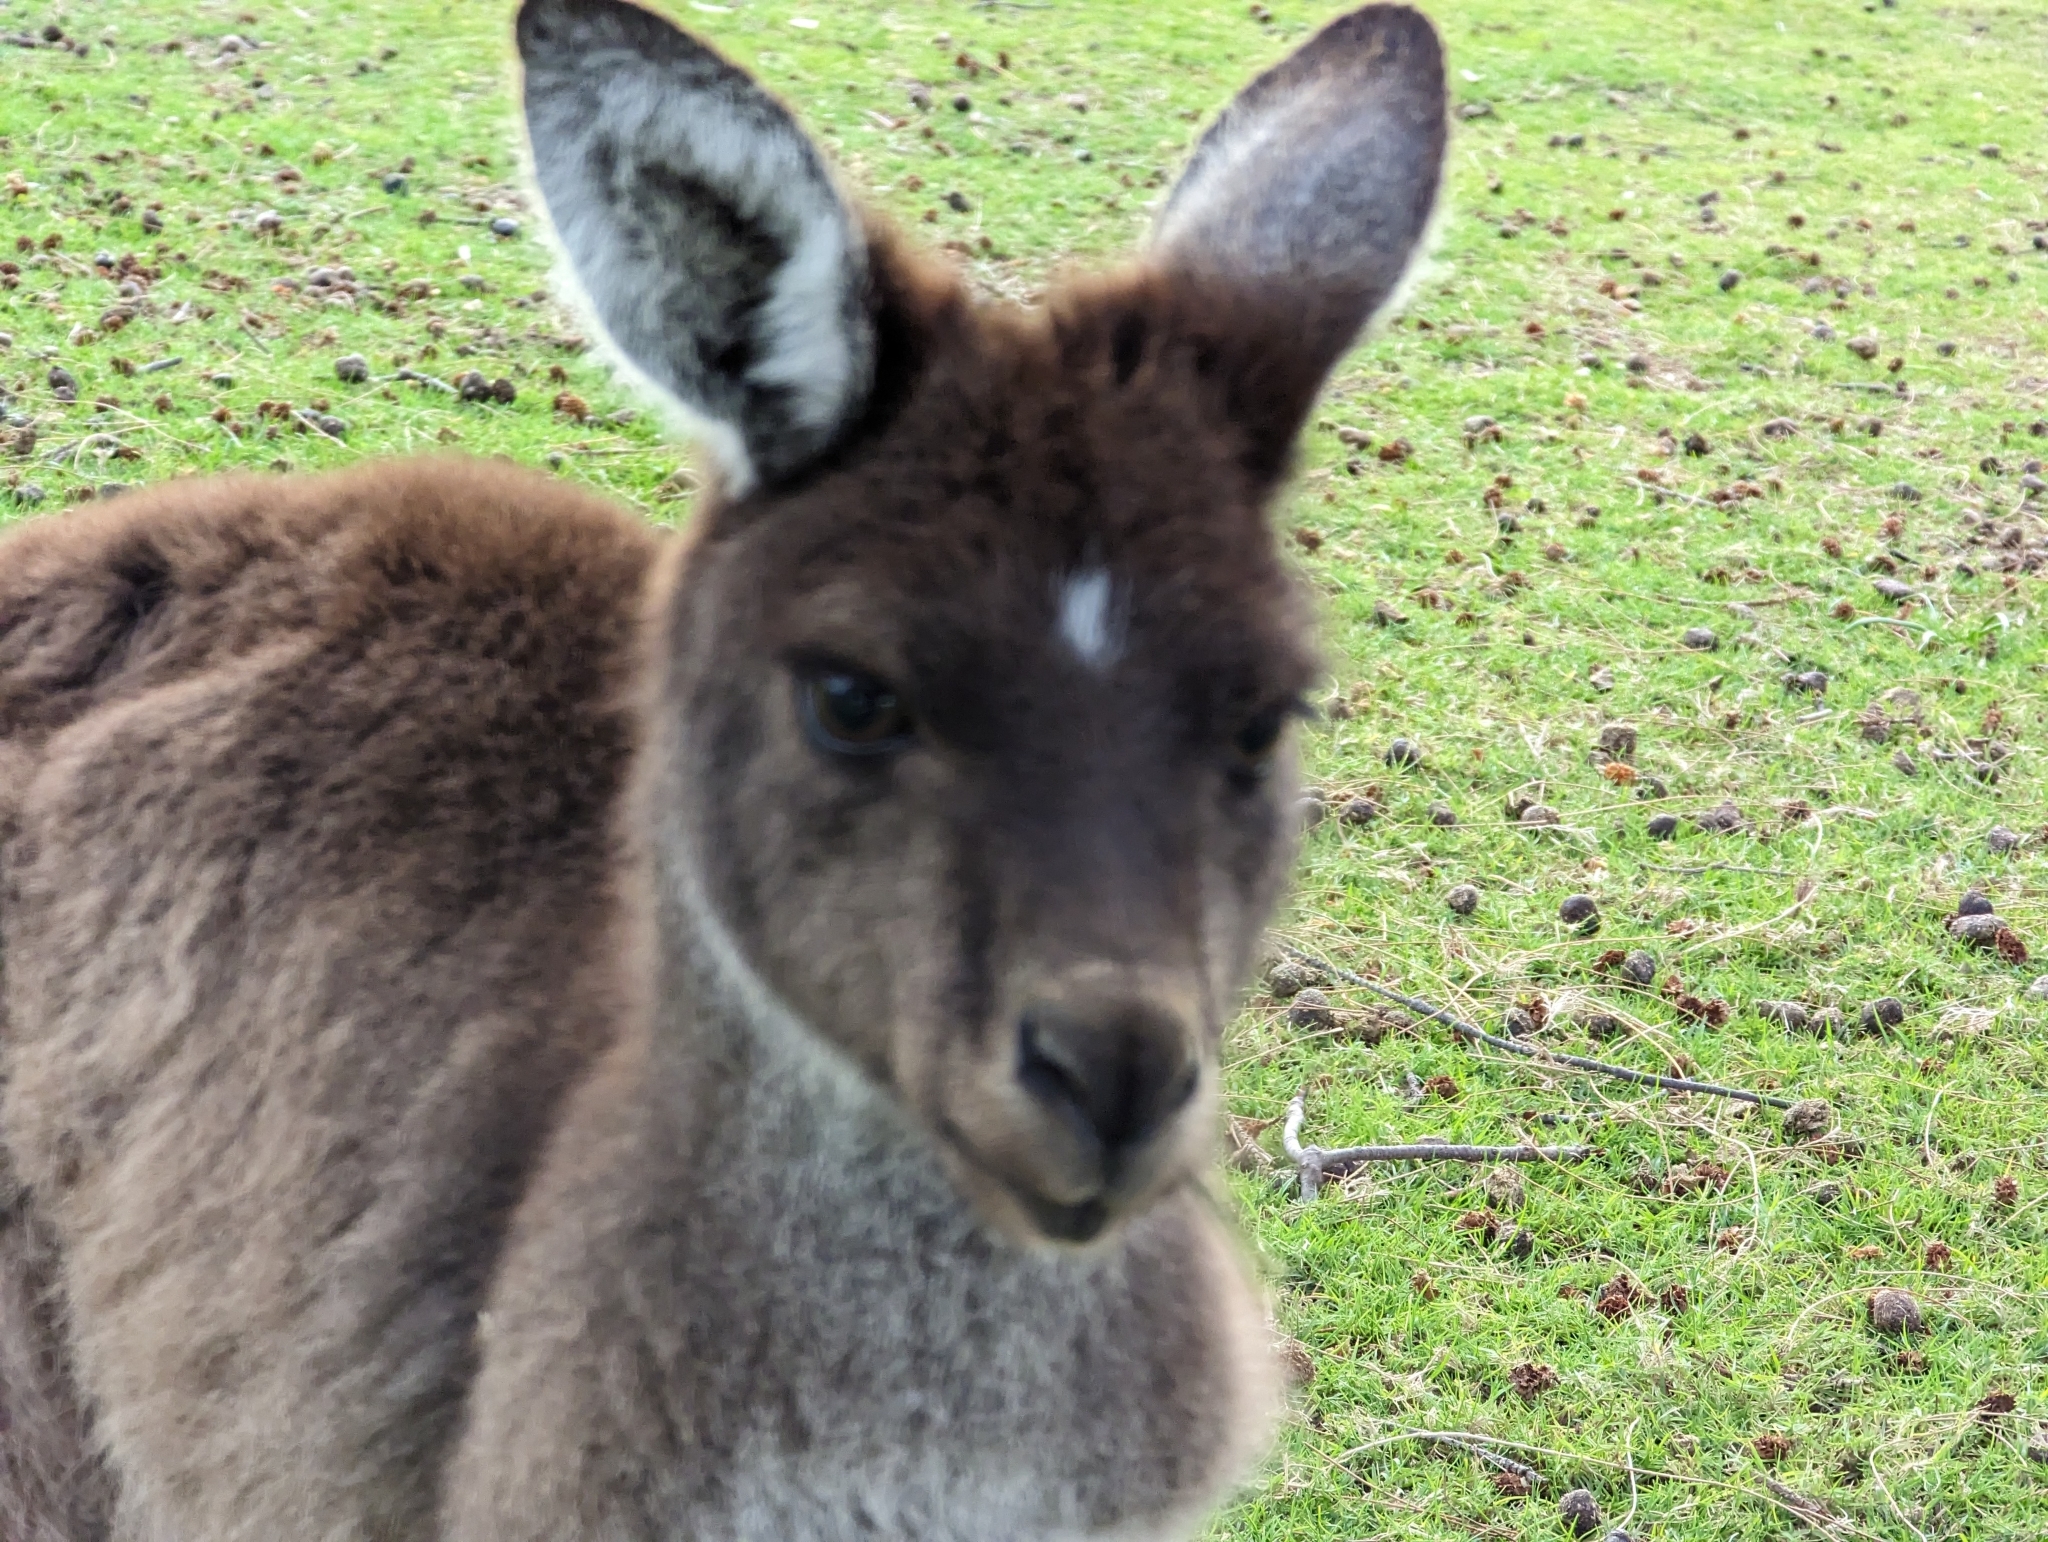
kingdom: Animalia
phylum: Chordata
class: Mammalia
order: Diprotodontia
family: Macropodidae
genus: Macropus
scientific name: Macropus fuliginosus
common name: Western grey kangaroo
